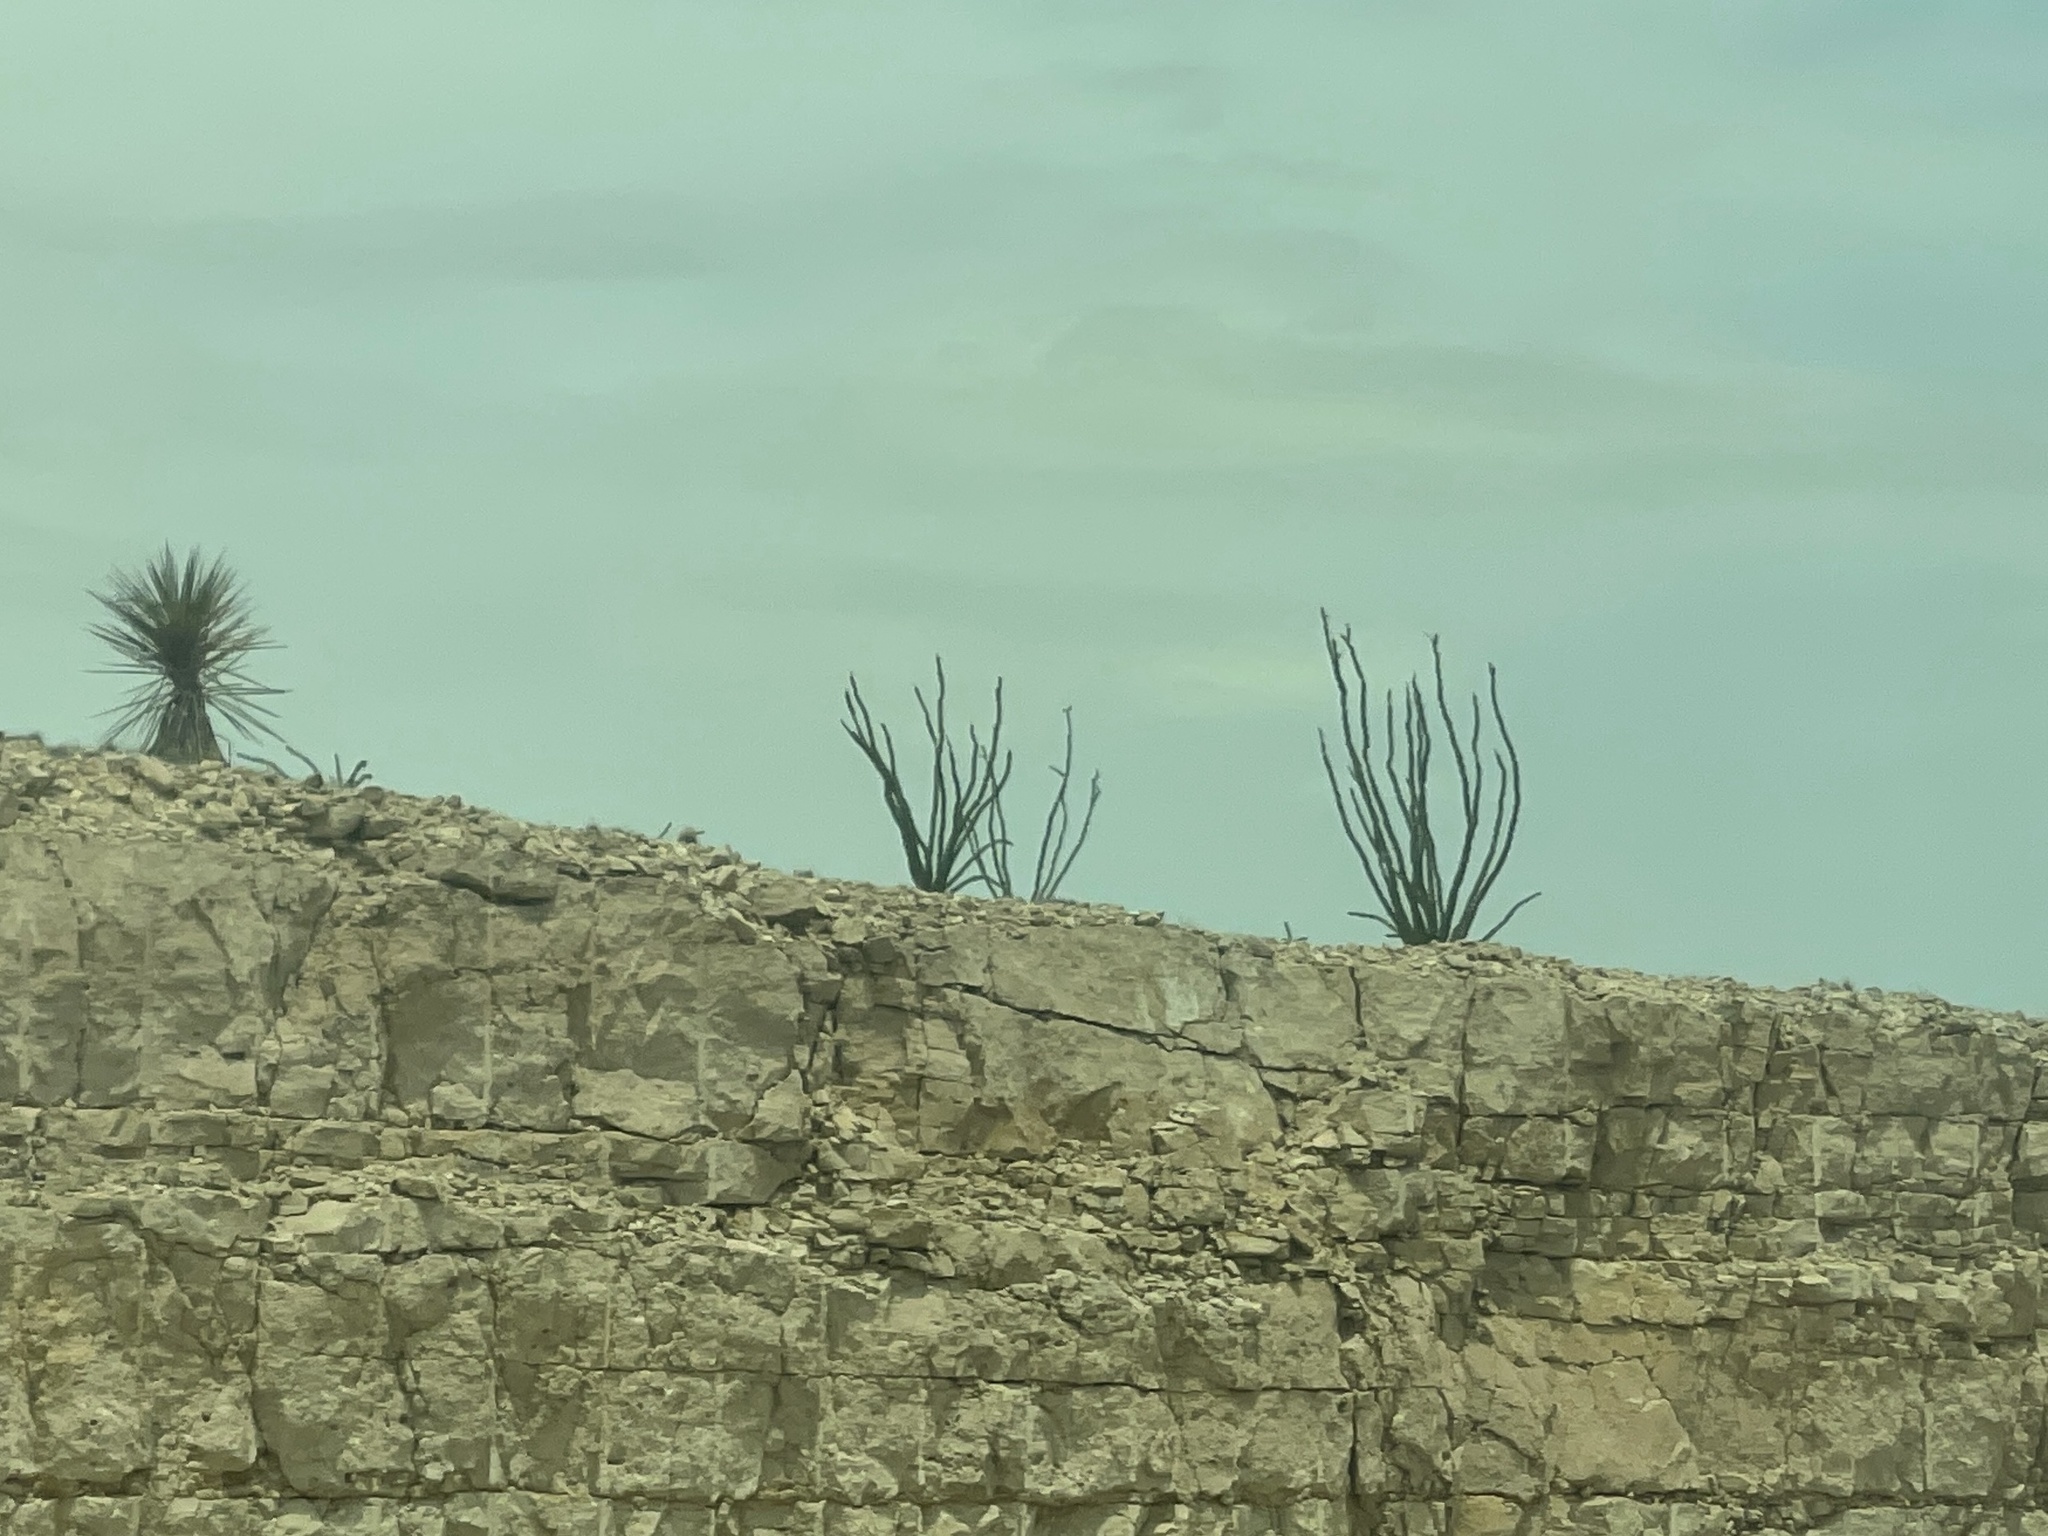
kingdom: Plantae
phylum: Tracheophyta
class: Magnoliopsida
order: Ericales
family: Fouquieriaceae
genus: Fouquieria
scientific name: Fouquieria splendens
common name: Vine-cactus
